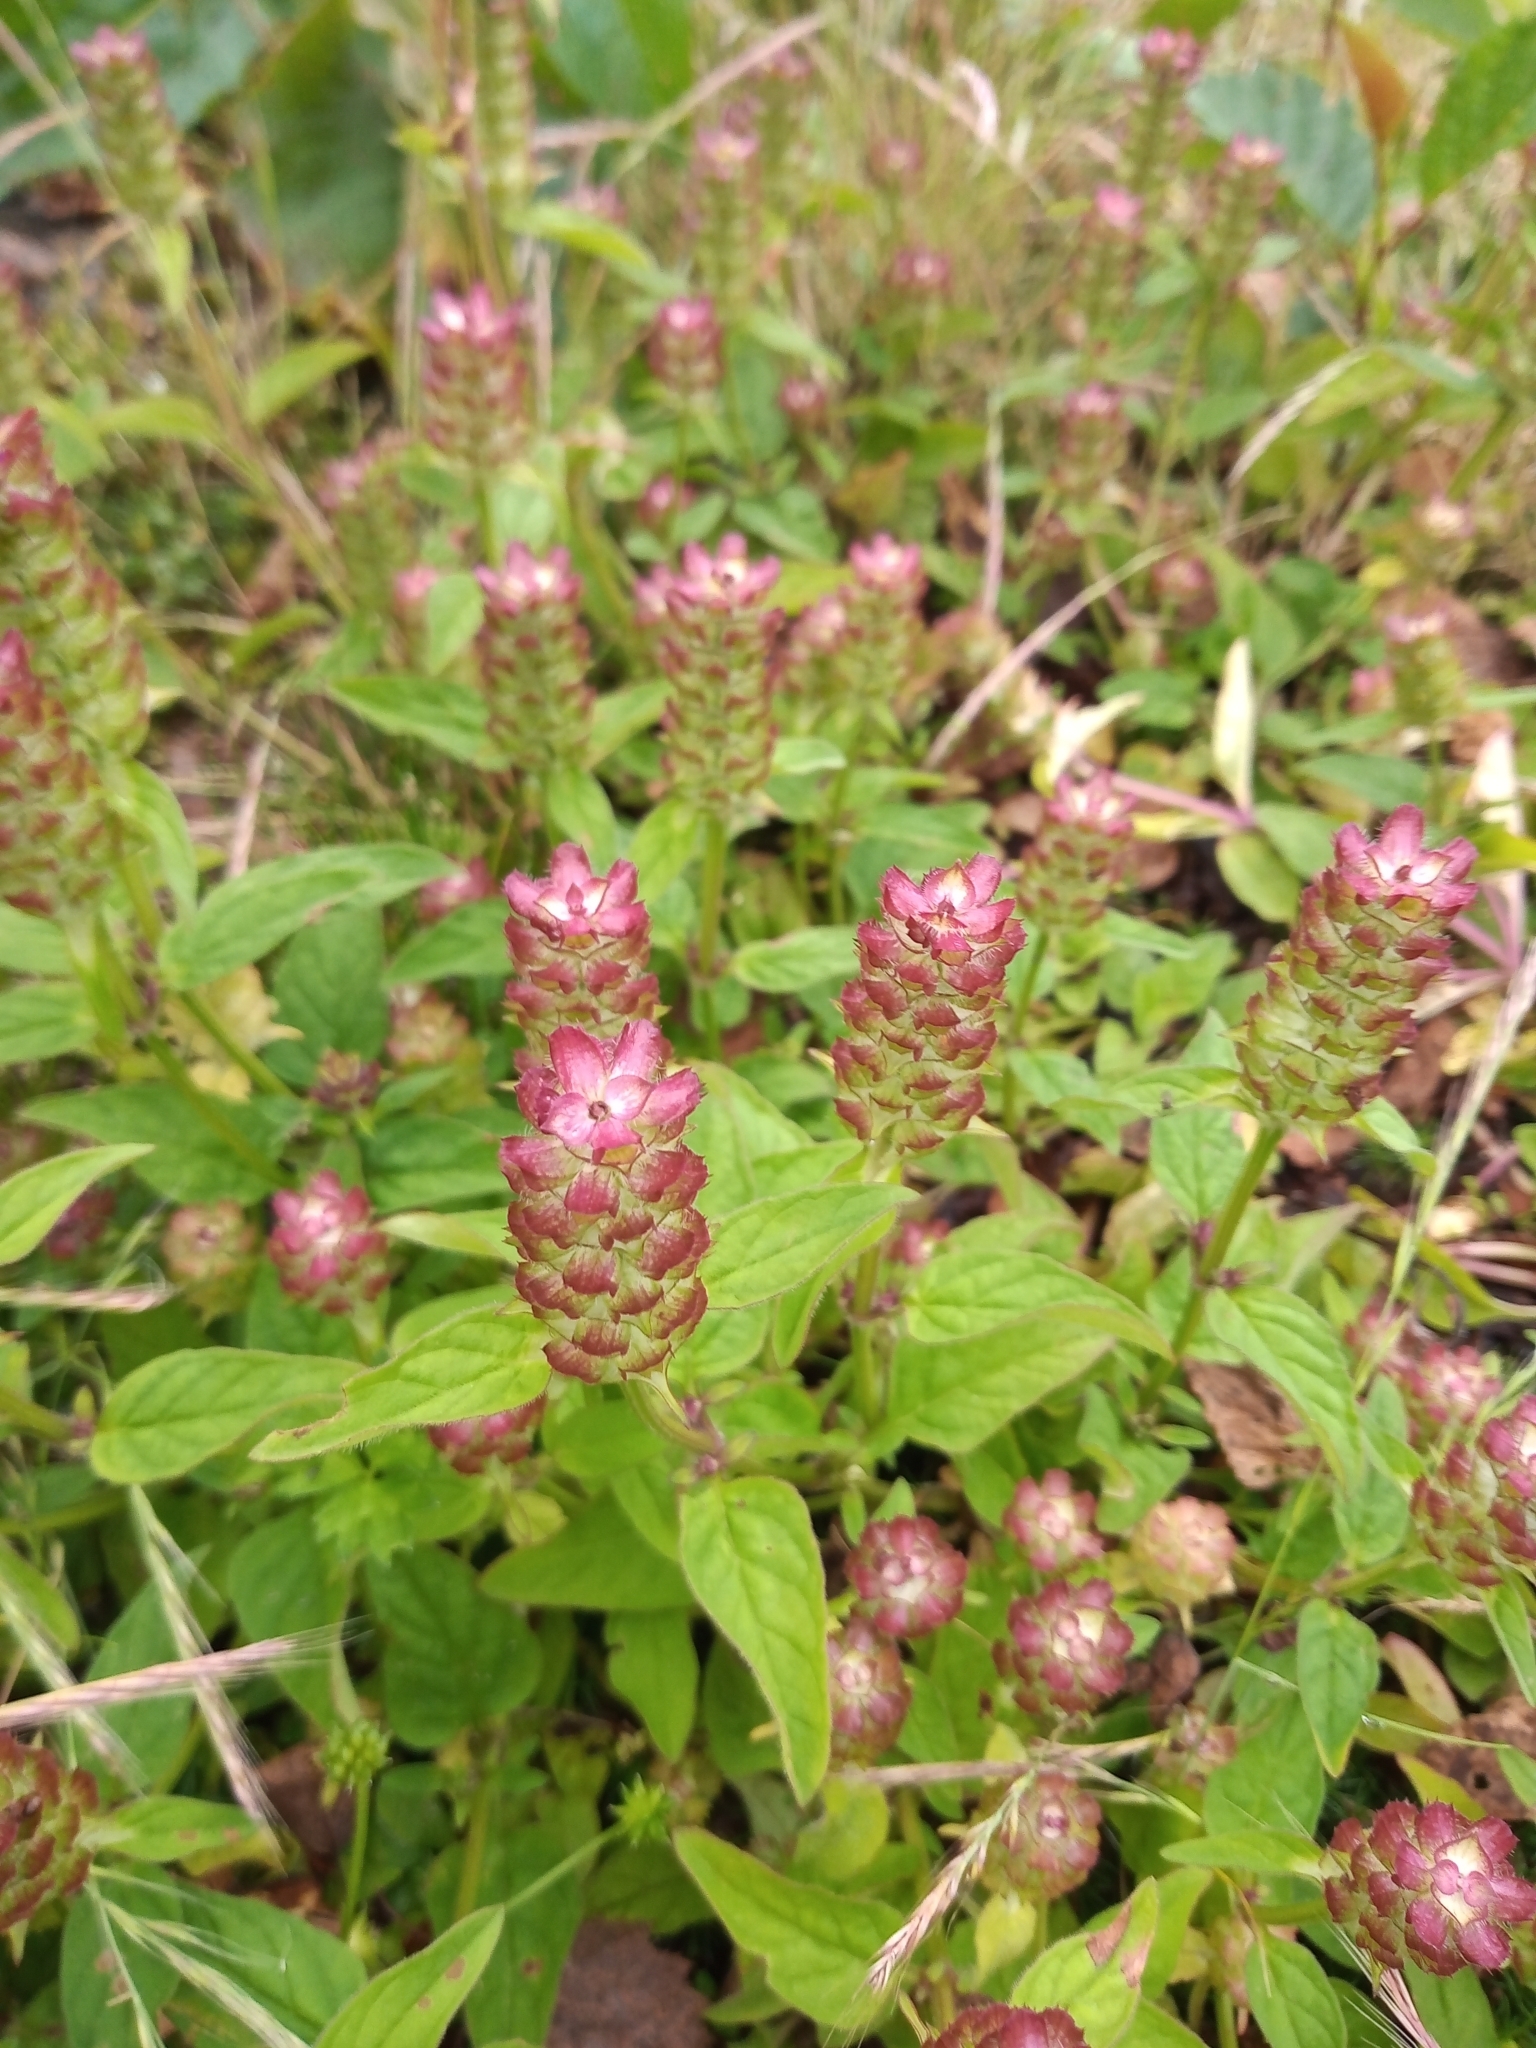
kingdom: Plantae
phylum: Tracheophyta
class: Magnoliopsida
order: Lamiales
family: Lamiaceae
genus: Prunella
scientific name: Prunella vulgaris
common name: Heal-all
